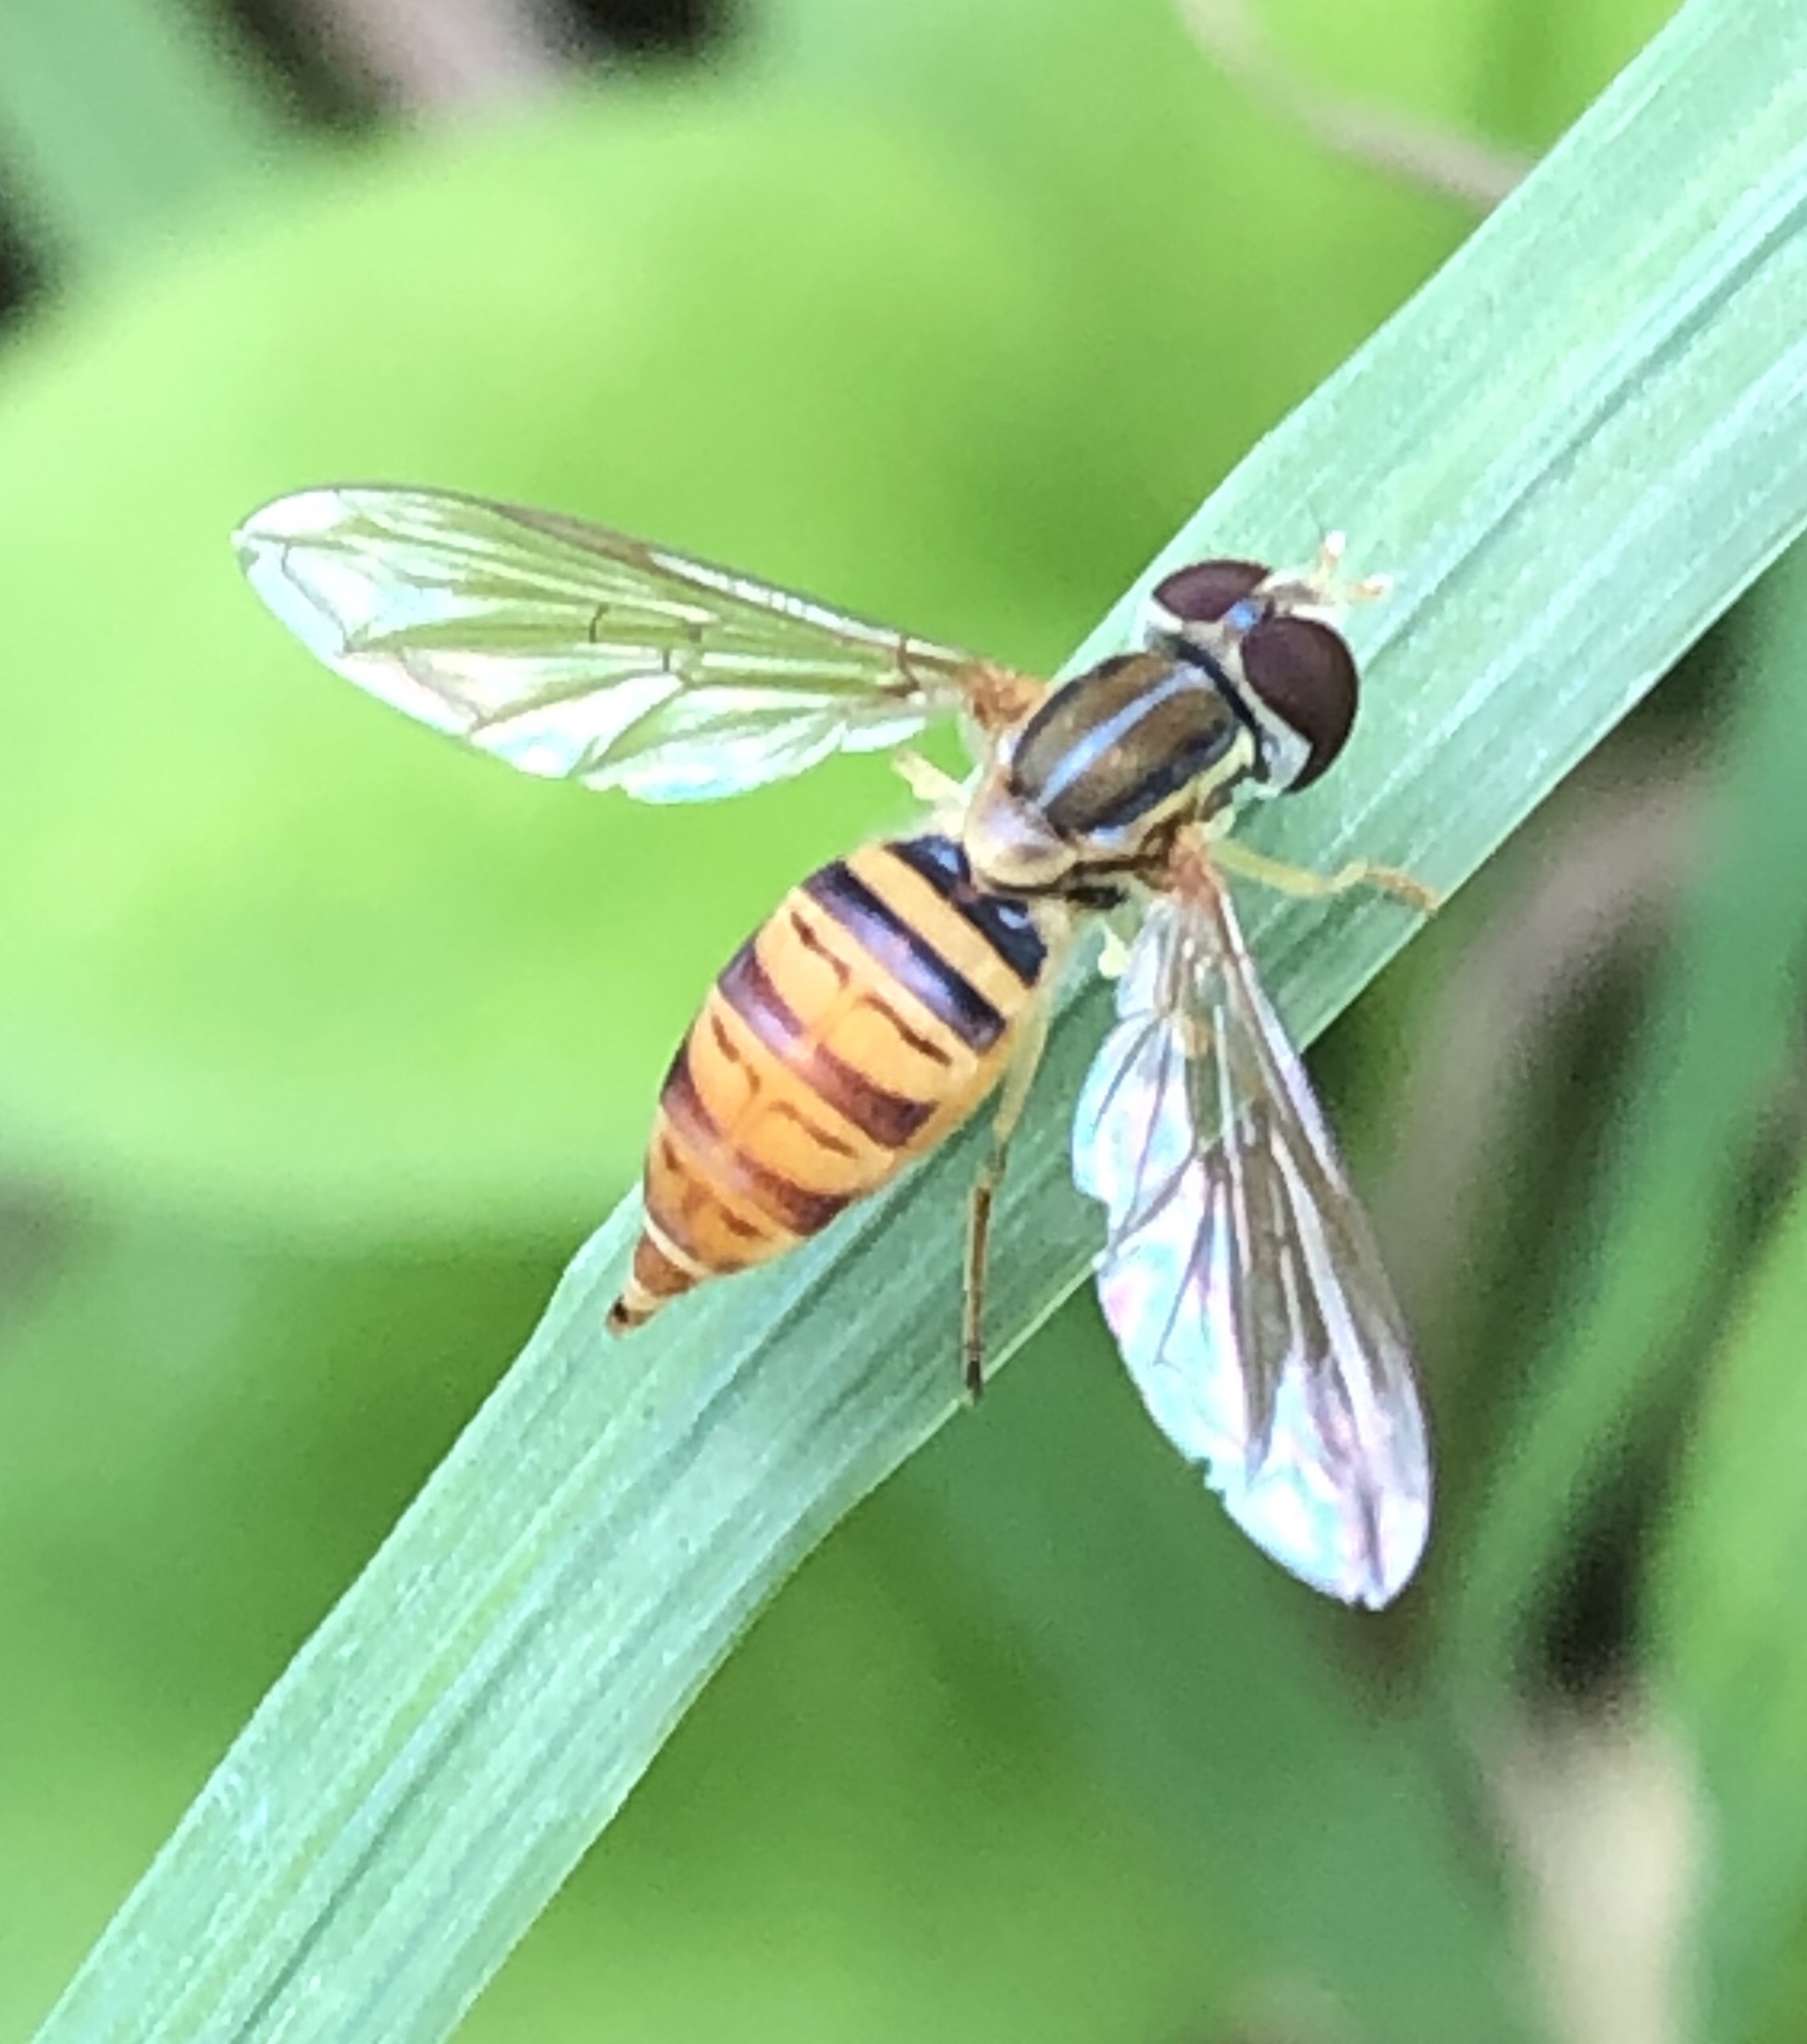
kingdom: Animalia
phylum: Arthropoda
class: Insecta
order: Diptera
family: Syrphidae
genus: Toxomerus
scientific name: Toxomerus politus
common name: Maize calligrapher
